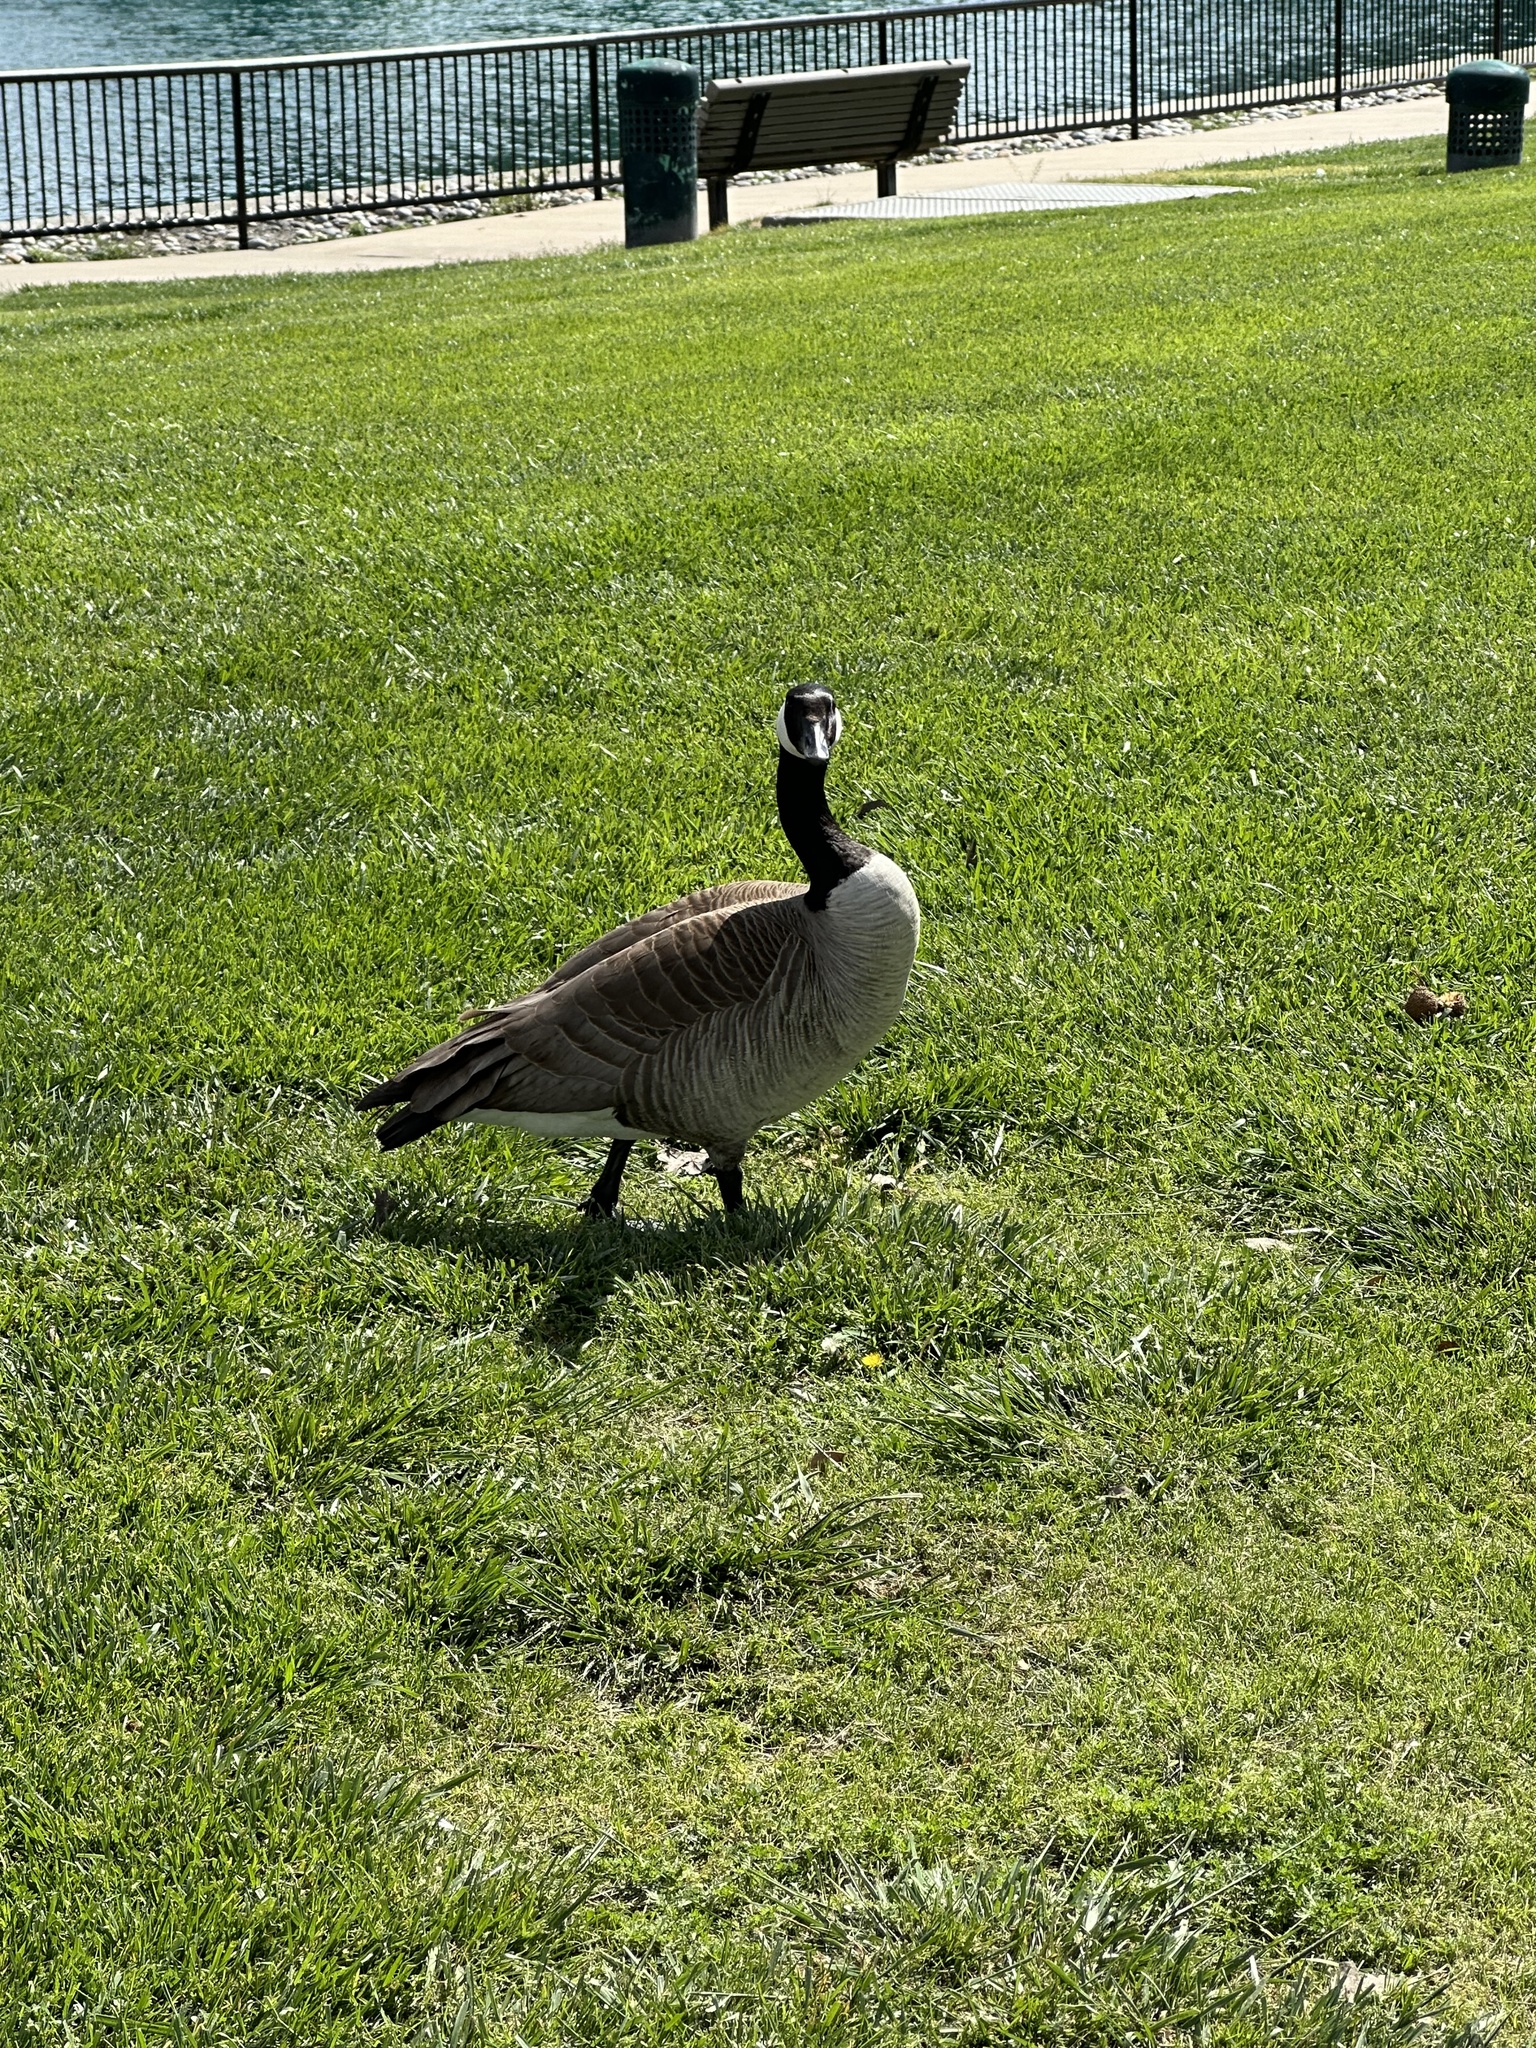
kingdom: Animalia
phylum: Chordata
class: Aves
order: Anseriformes
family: Anatidae
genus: Branta
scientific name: Branta canadensis
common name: Canada goose
